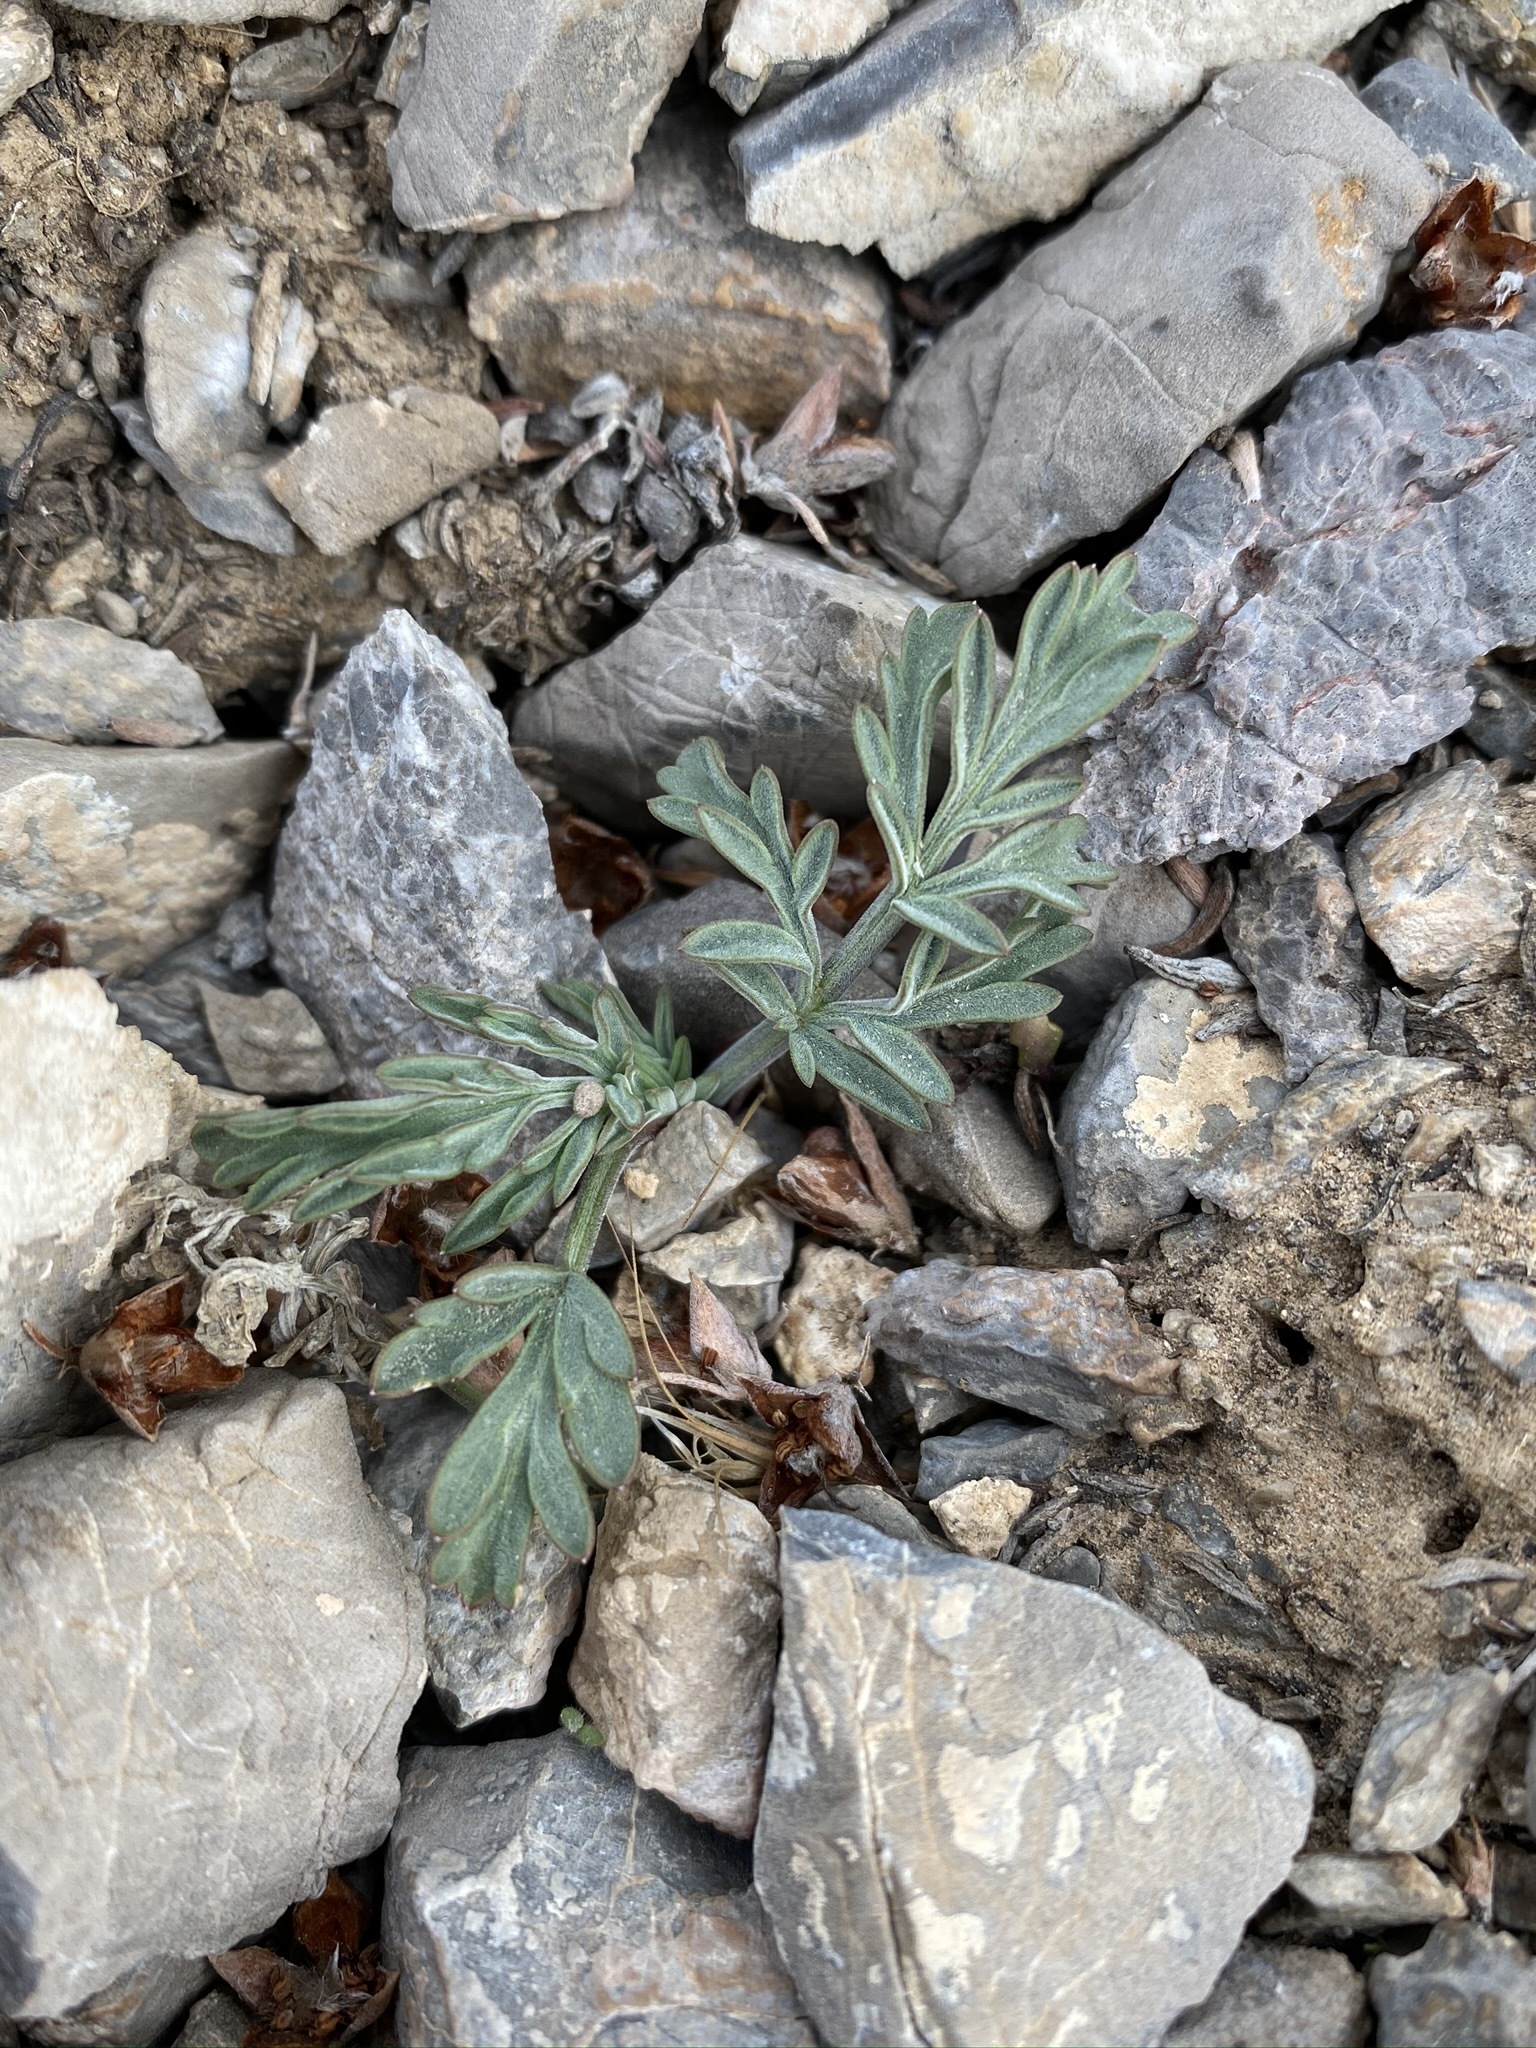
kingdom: Plantae
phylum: Tracheophyta
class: Magnoliopsida
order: Apiales
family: Apiaceae
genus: Lomatium
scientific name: Lomatium nevadense
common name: Nevada lomatium
